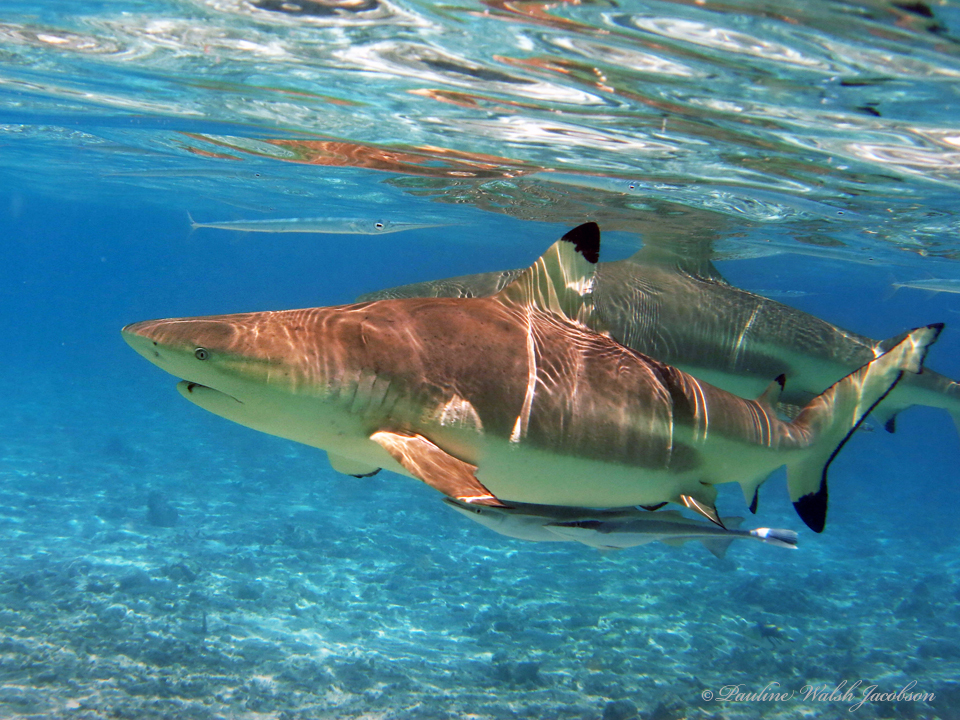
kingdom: Animalia
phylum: Chordata
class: Elasmobranchii
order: Carcharhiniformes
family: Carcharhinidae
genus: Carcharhinus
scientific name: Carcharhinus melanopterus
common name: Blacktip reef shark
